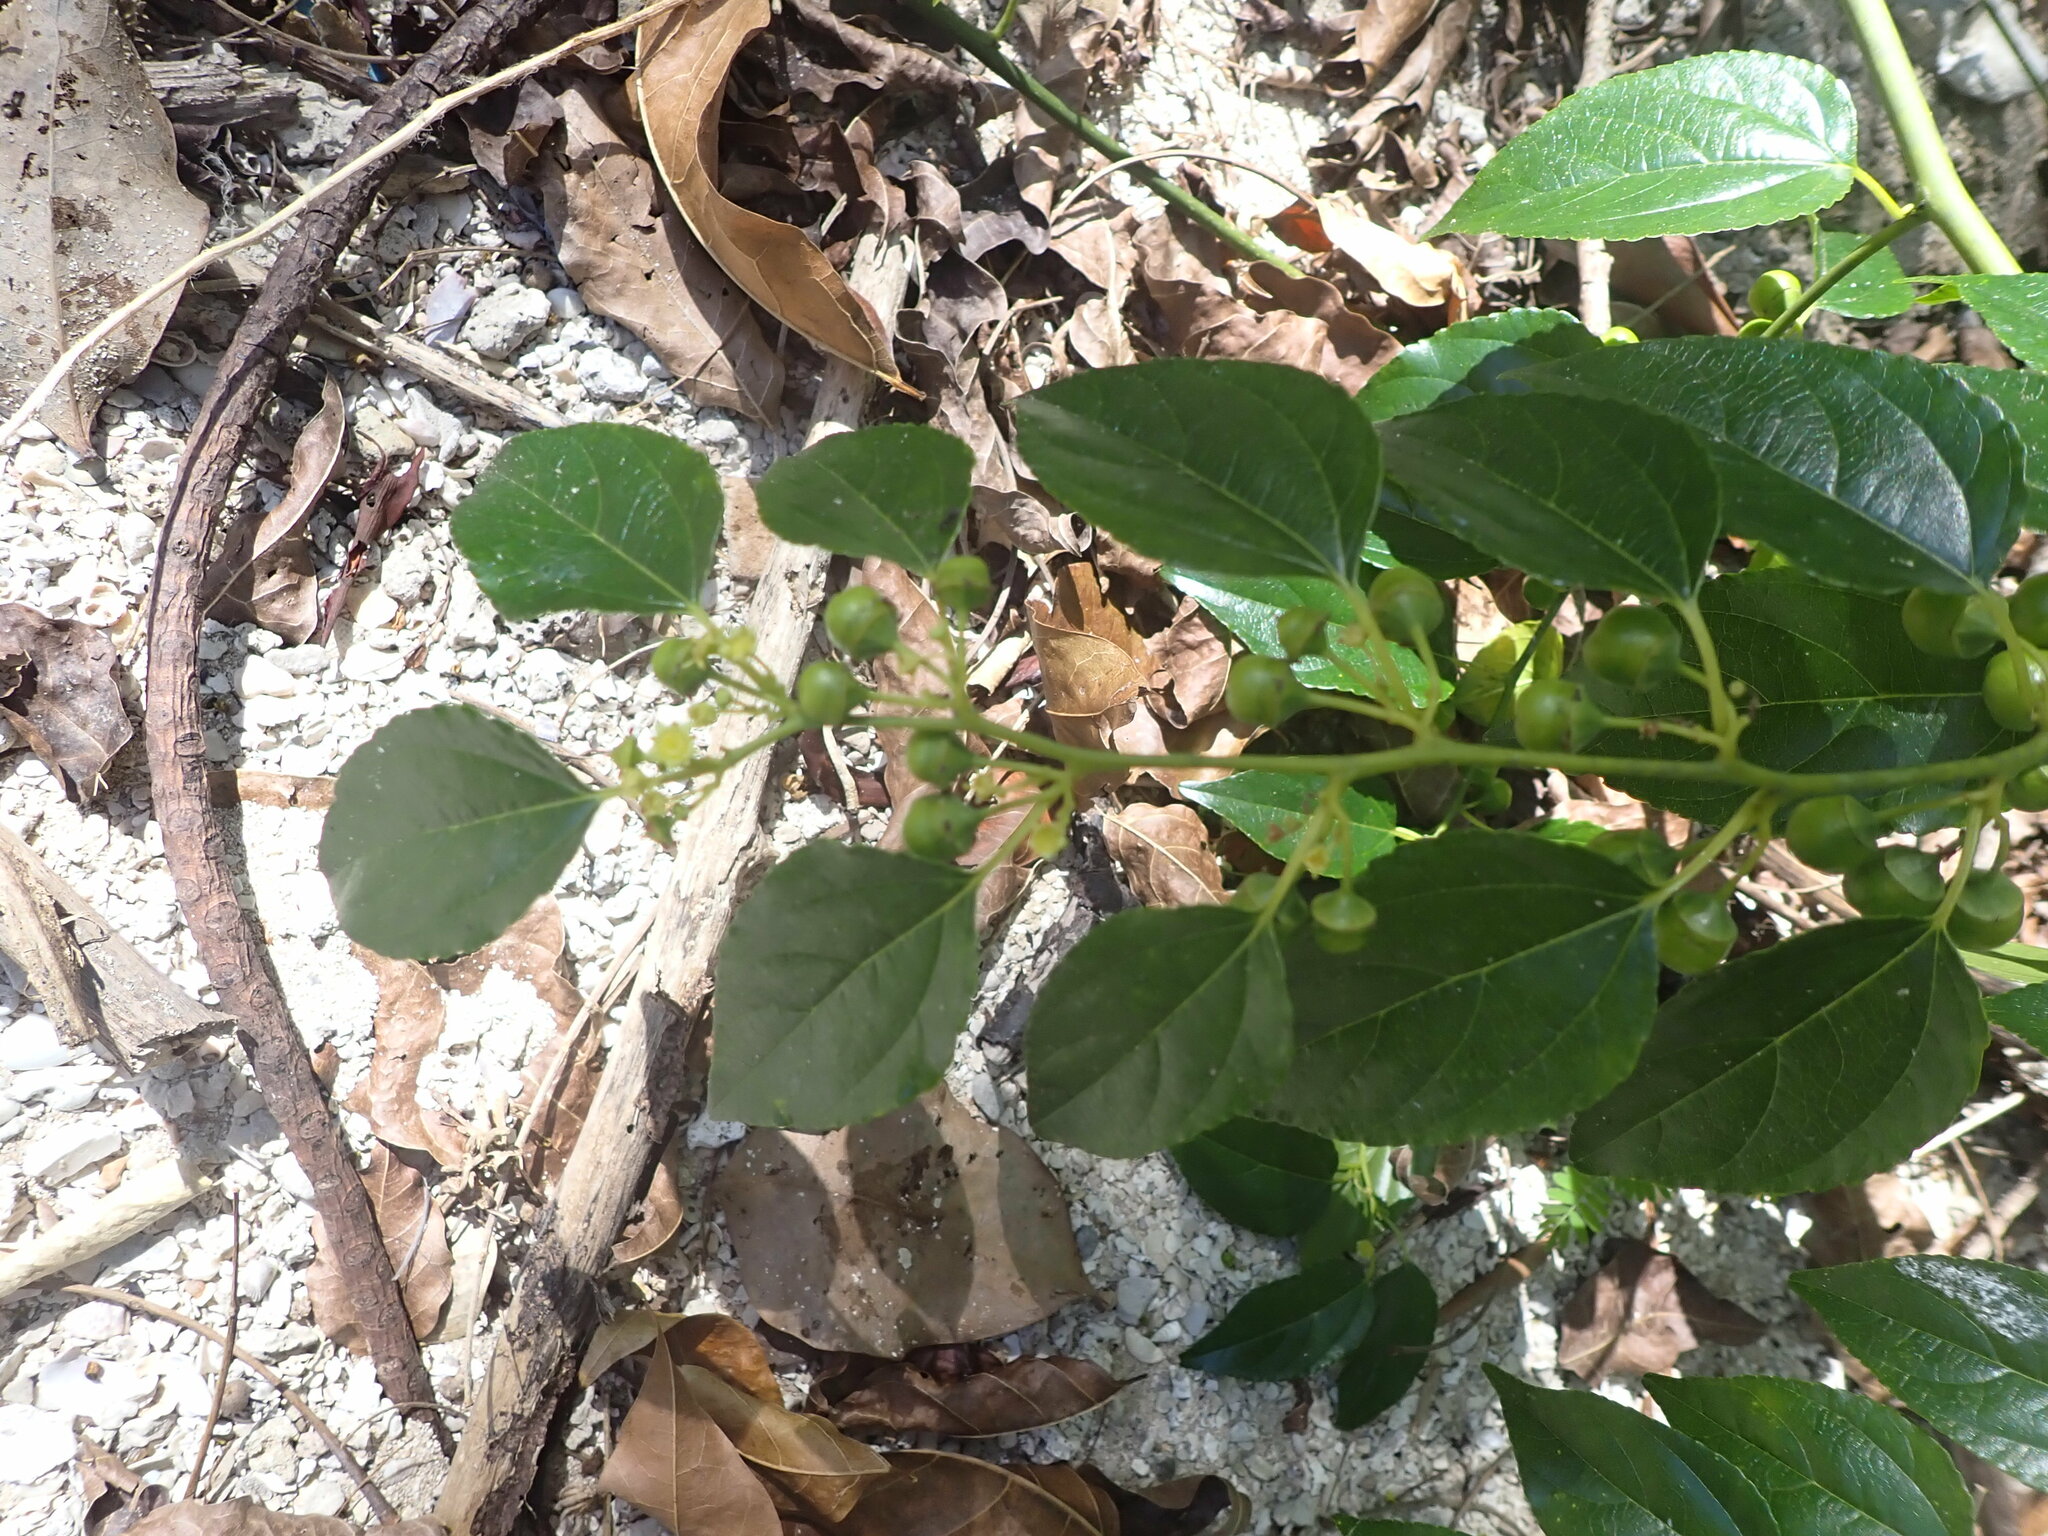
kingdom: Plantae
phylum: Tracheophyta
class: Magnoliopsida
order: Rosales
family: Rhamnaceae
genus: Colubrina
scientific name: Colubrina asiatica
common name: Asian nakedwood
